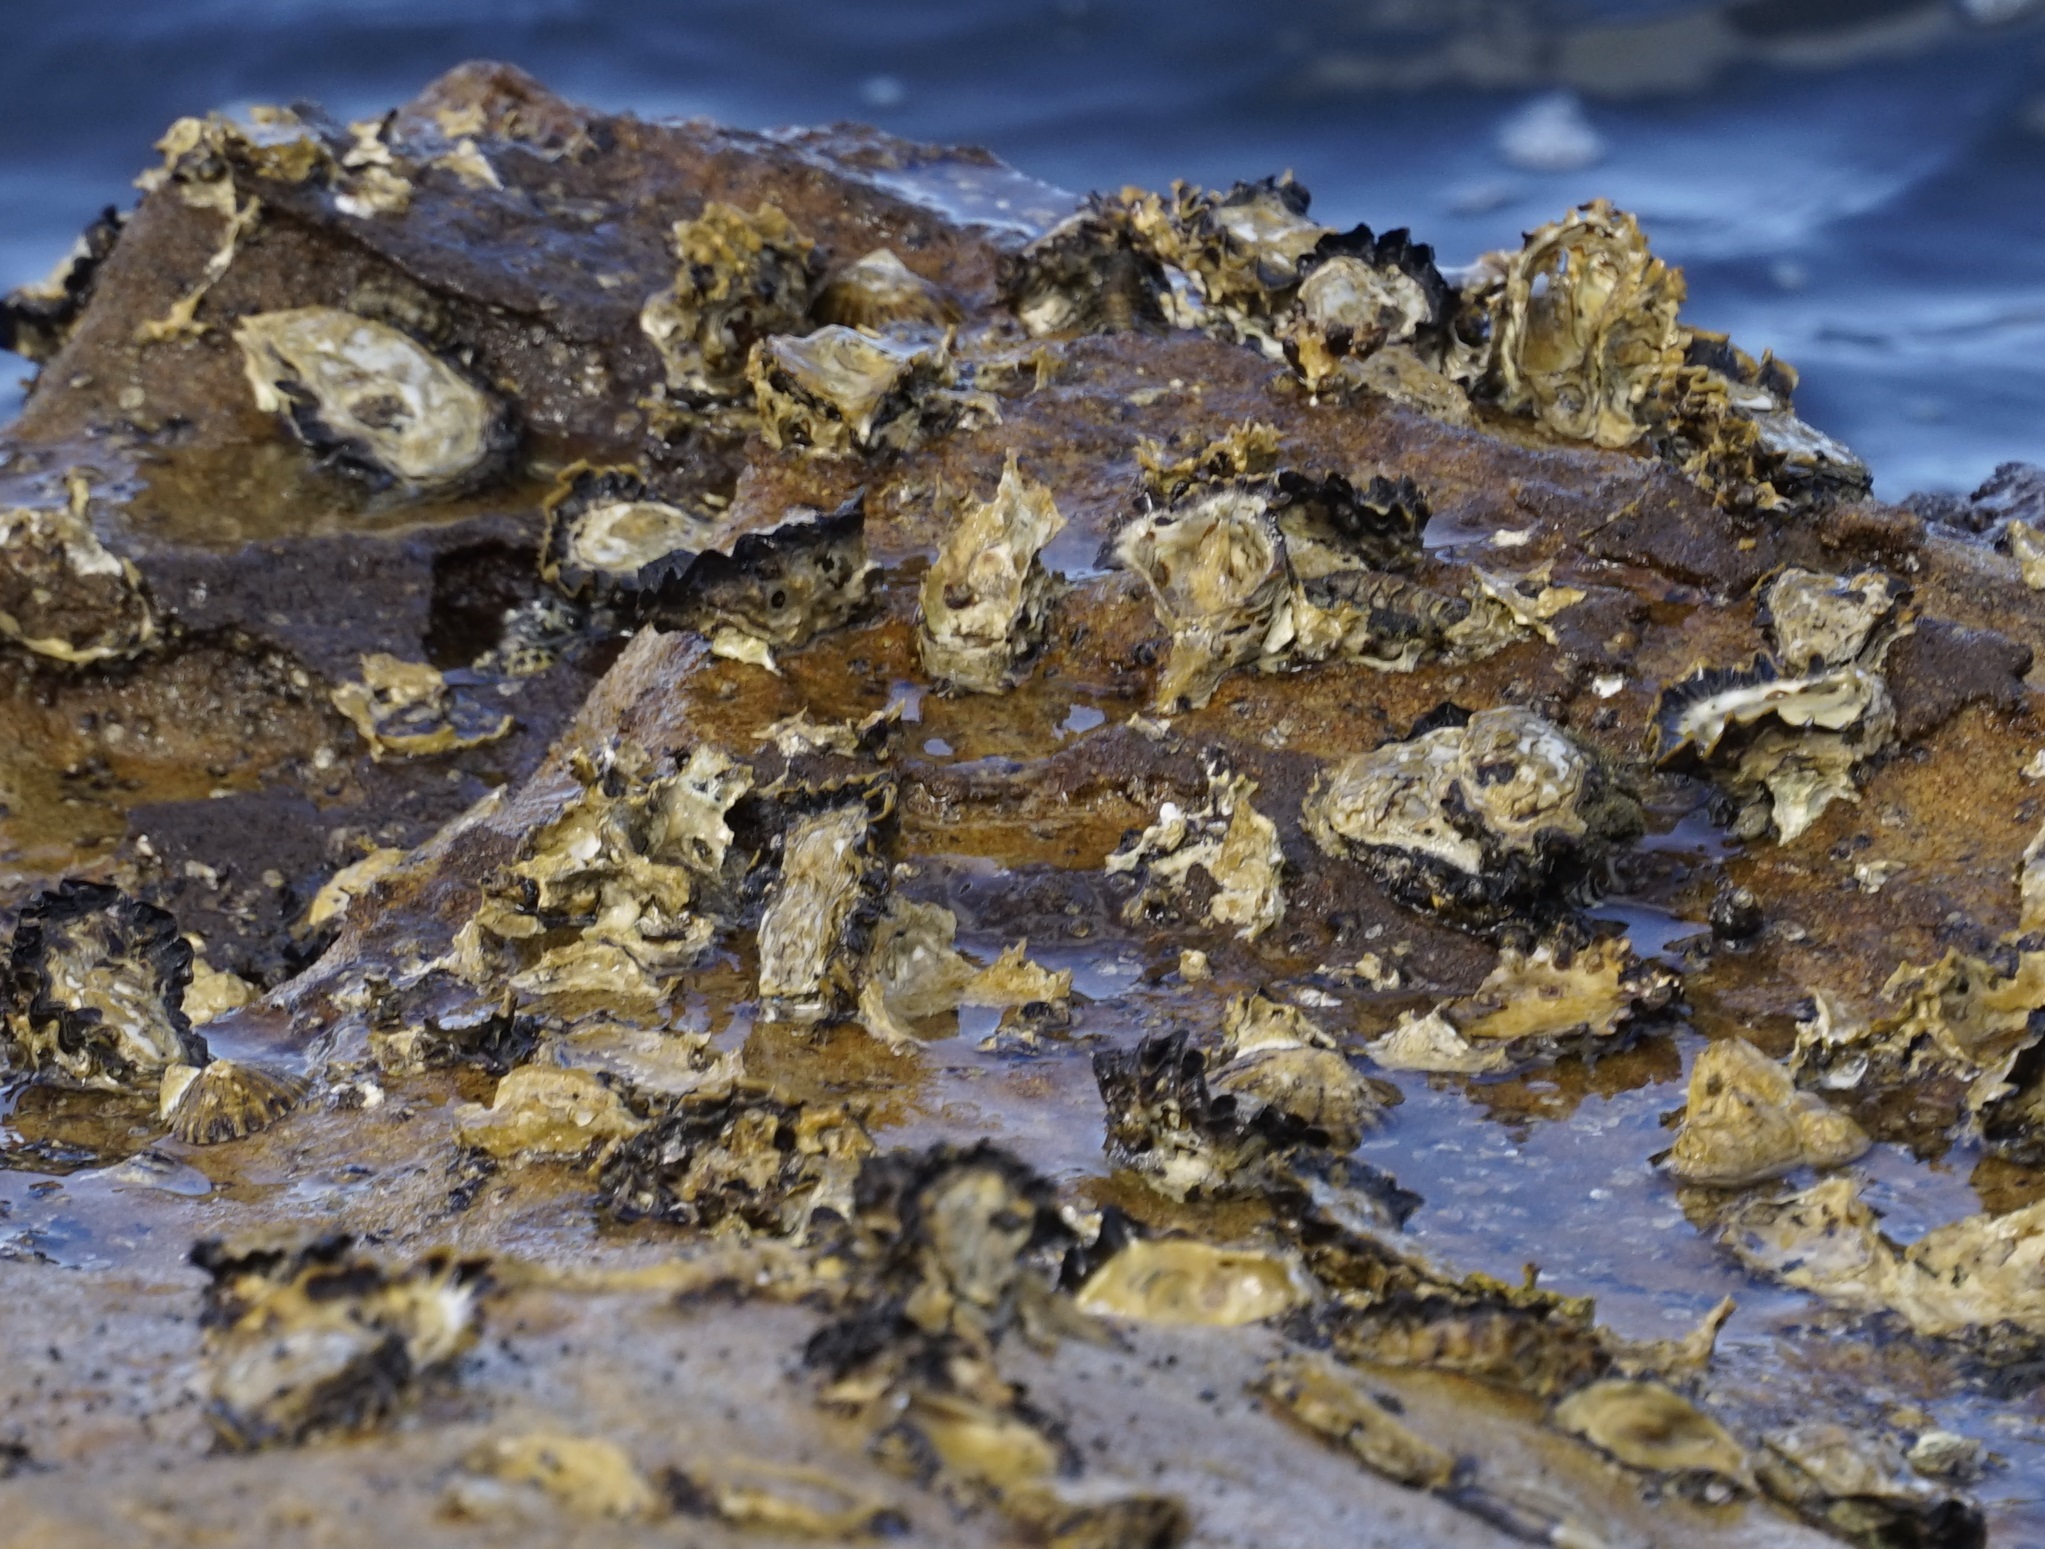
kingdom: Animalia
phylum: Mollusca
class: Bivalvia
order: Ostreida
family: Ostreidae
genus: Saccostrea
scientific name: Saccostrea glomerata
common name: Sydney cupped oyster
